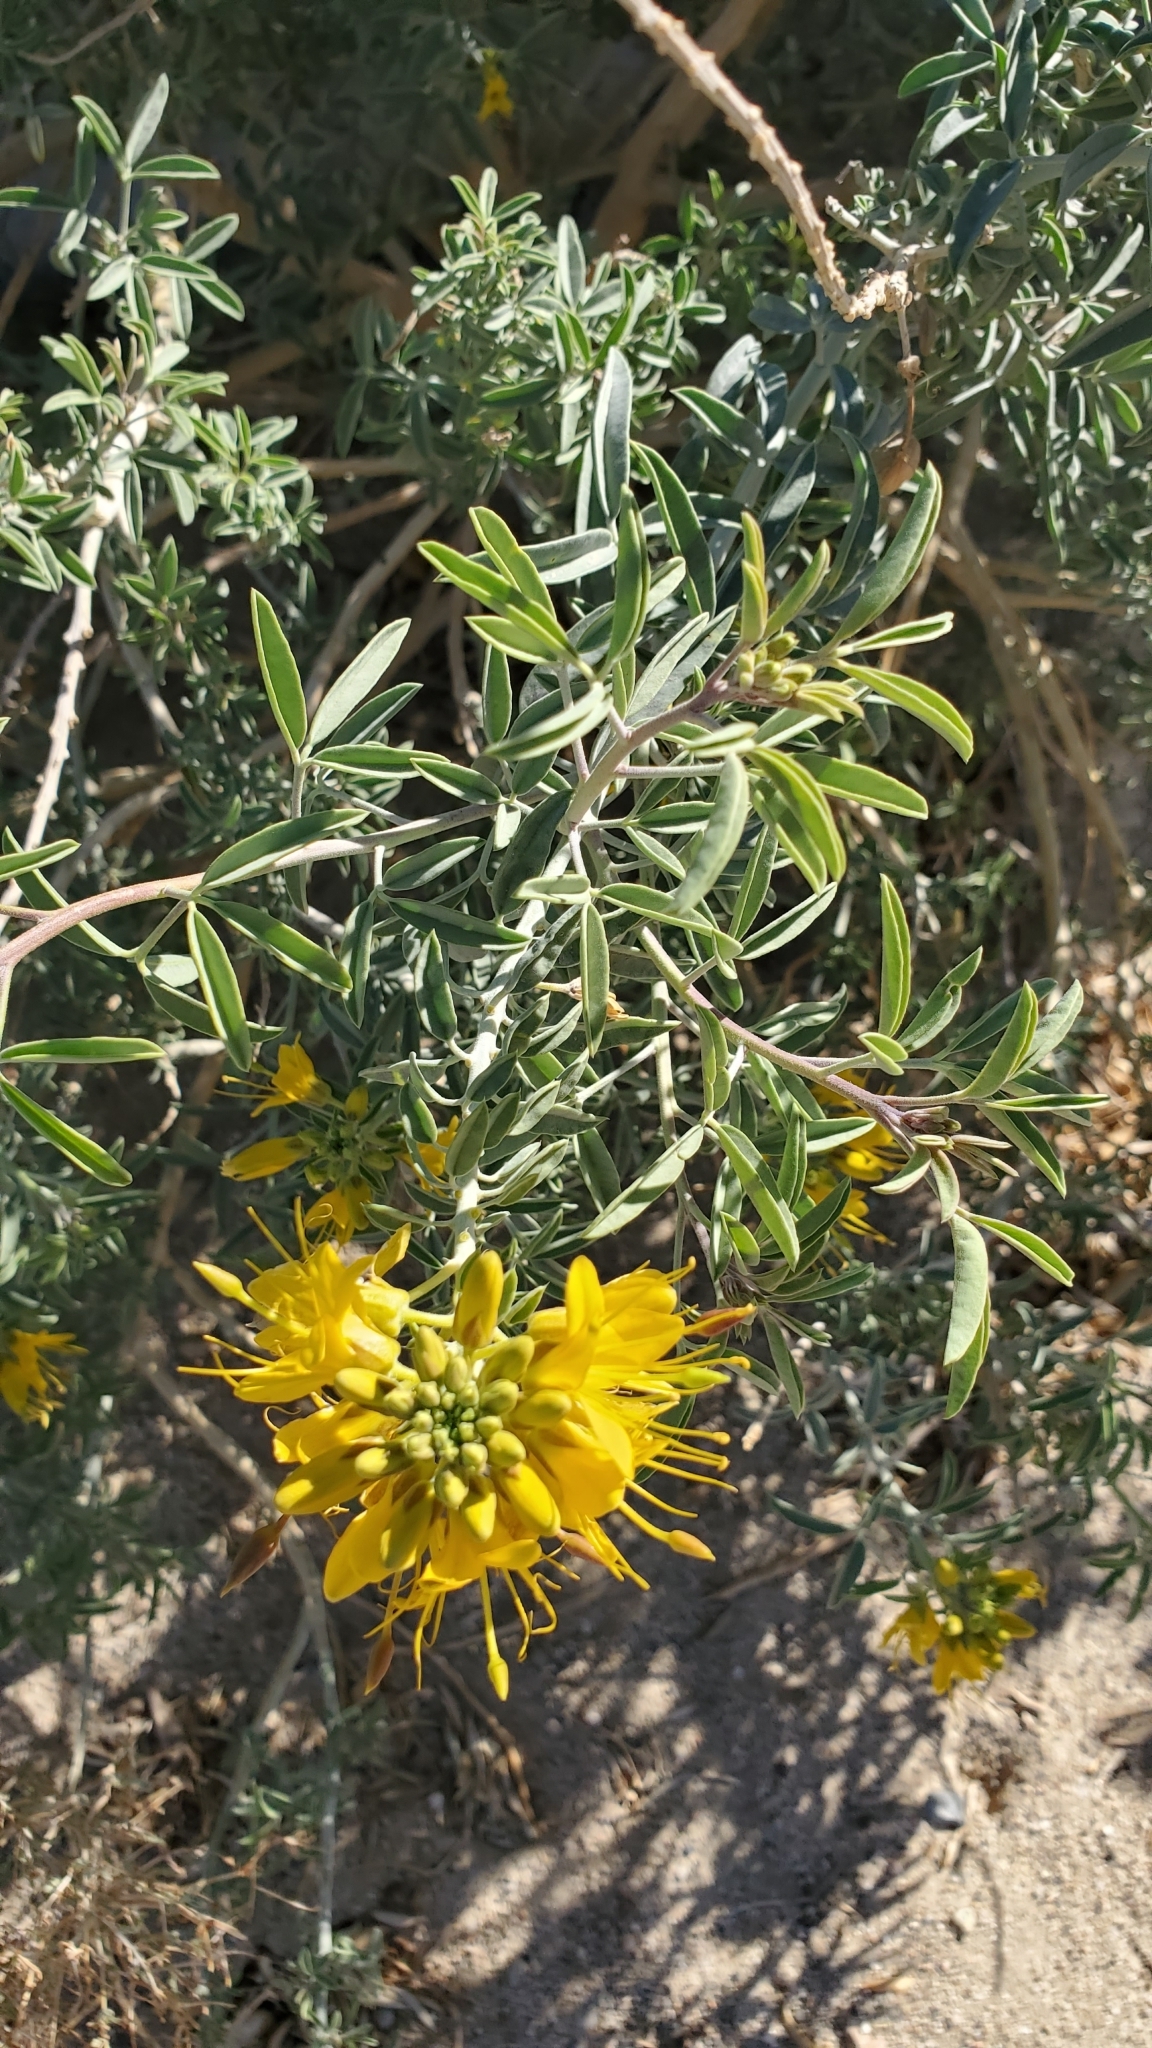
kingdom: Plantae
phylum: Tracheophyta
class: Magnoliopsida
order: Brassicales
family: Cleomaceae
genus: Cleomella
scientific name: Cleomella arborea
